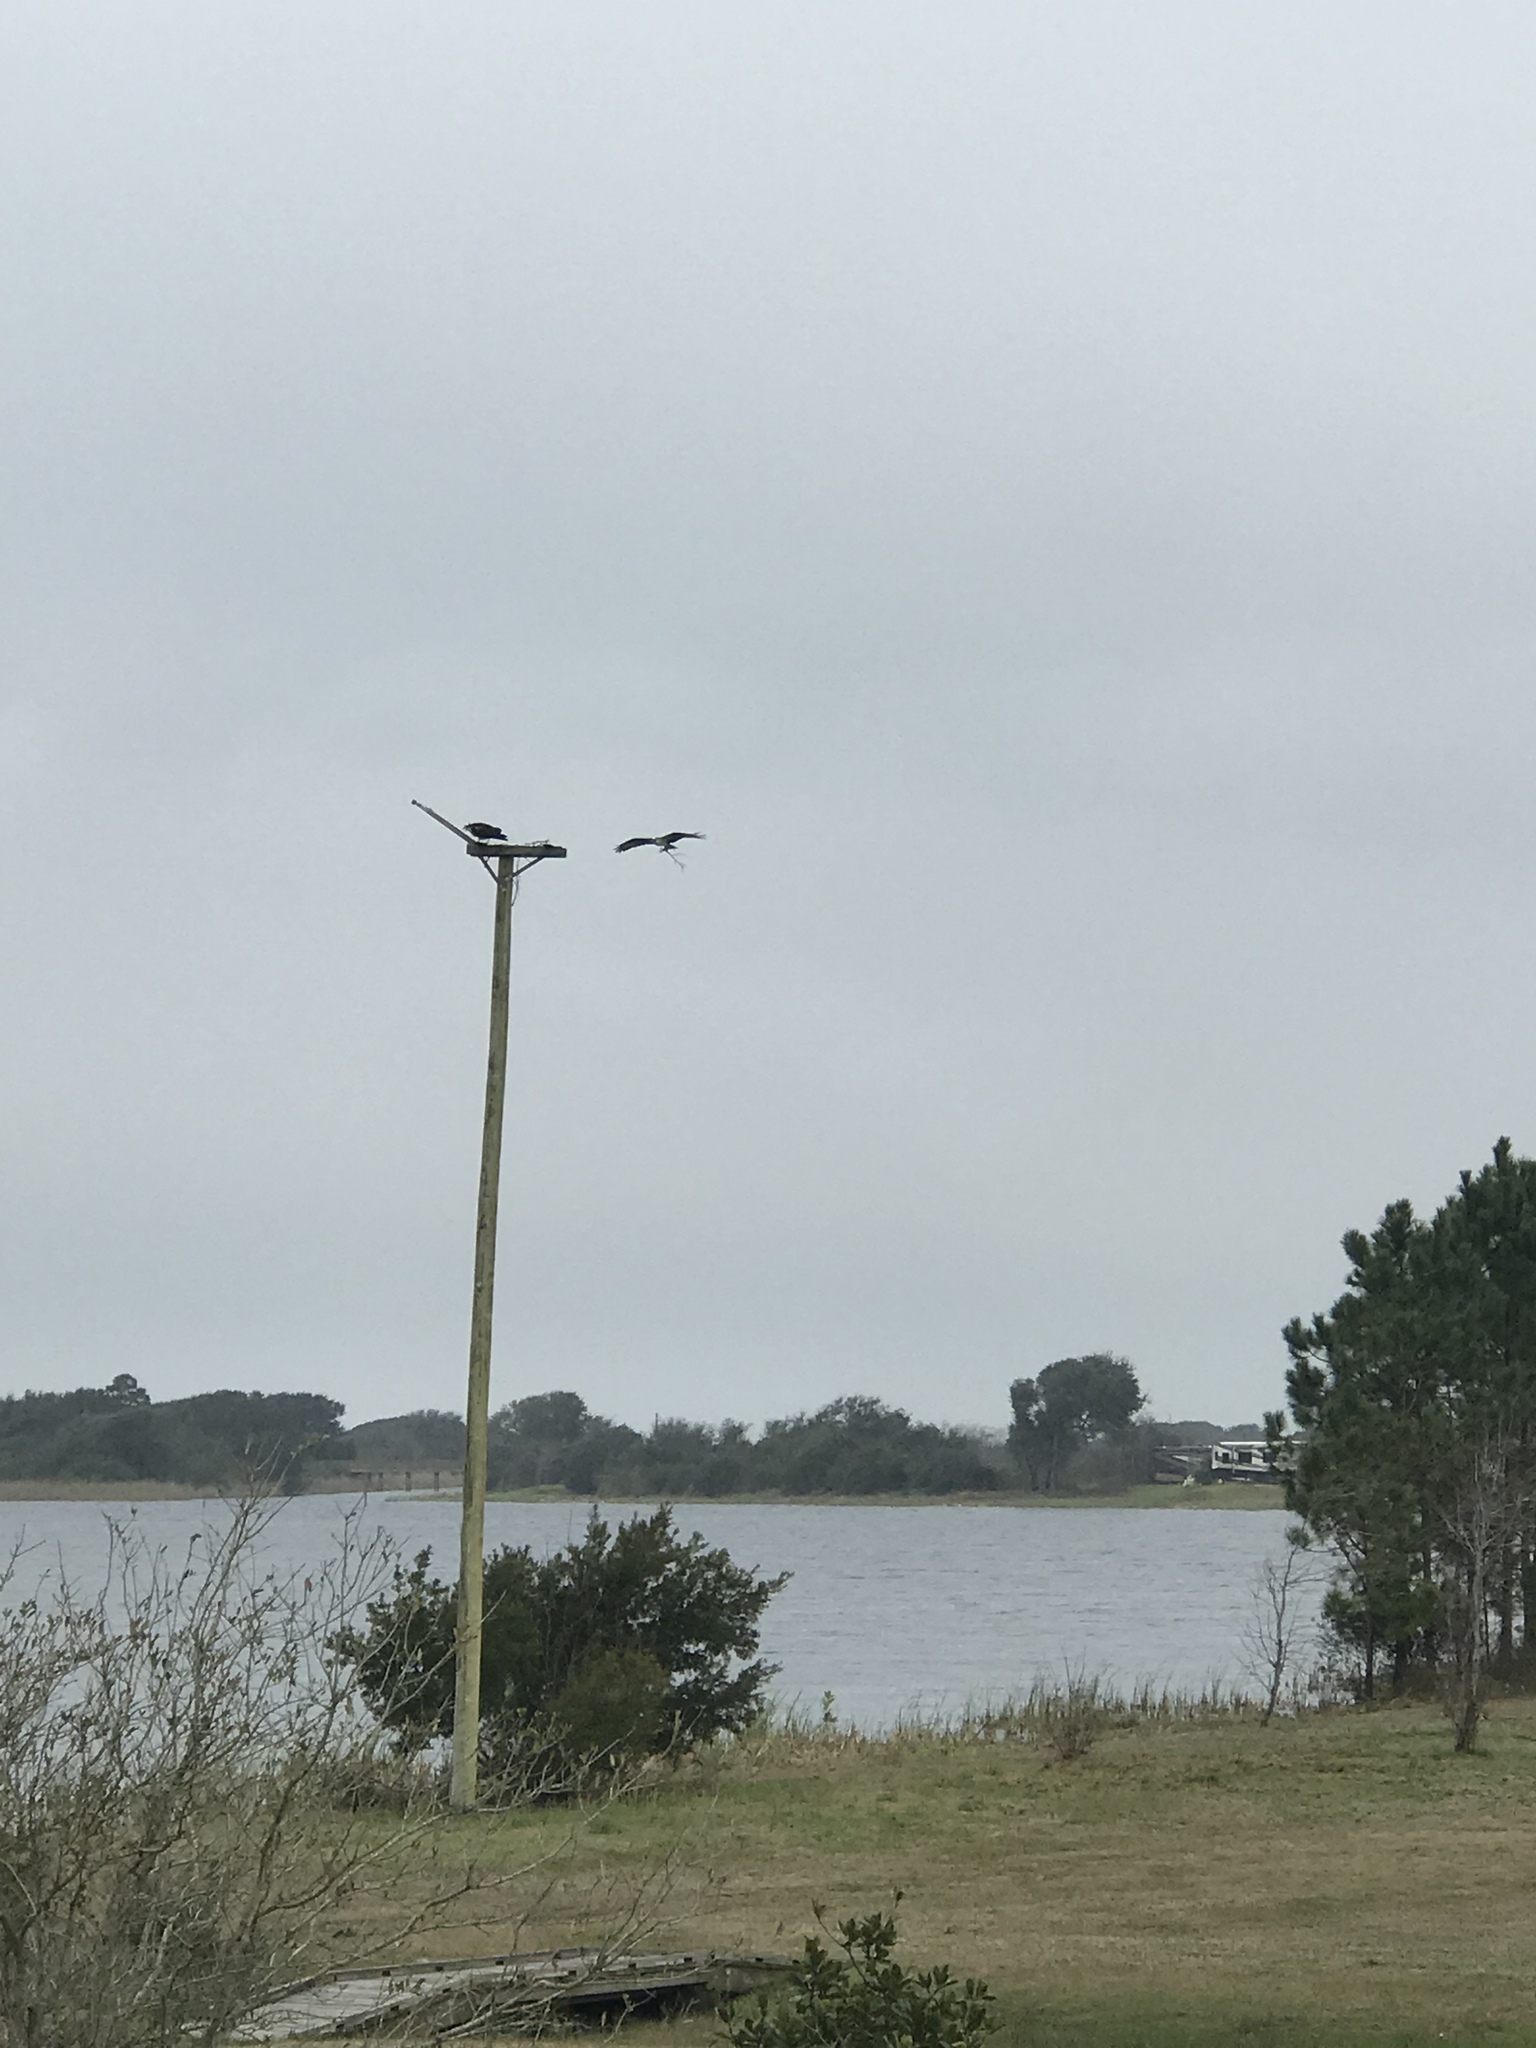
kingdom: Animalia
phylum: Chordata
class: Aves
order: Accipitriformes
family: Pandionidae
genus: Pandion
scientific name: Pandion haliaetus
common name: Osprey
